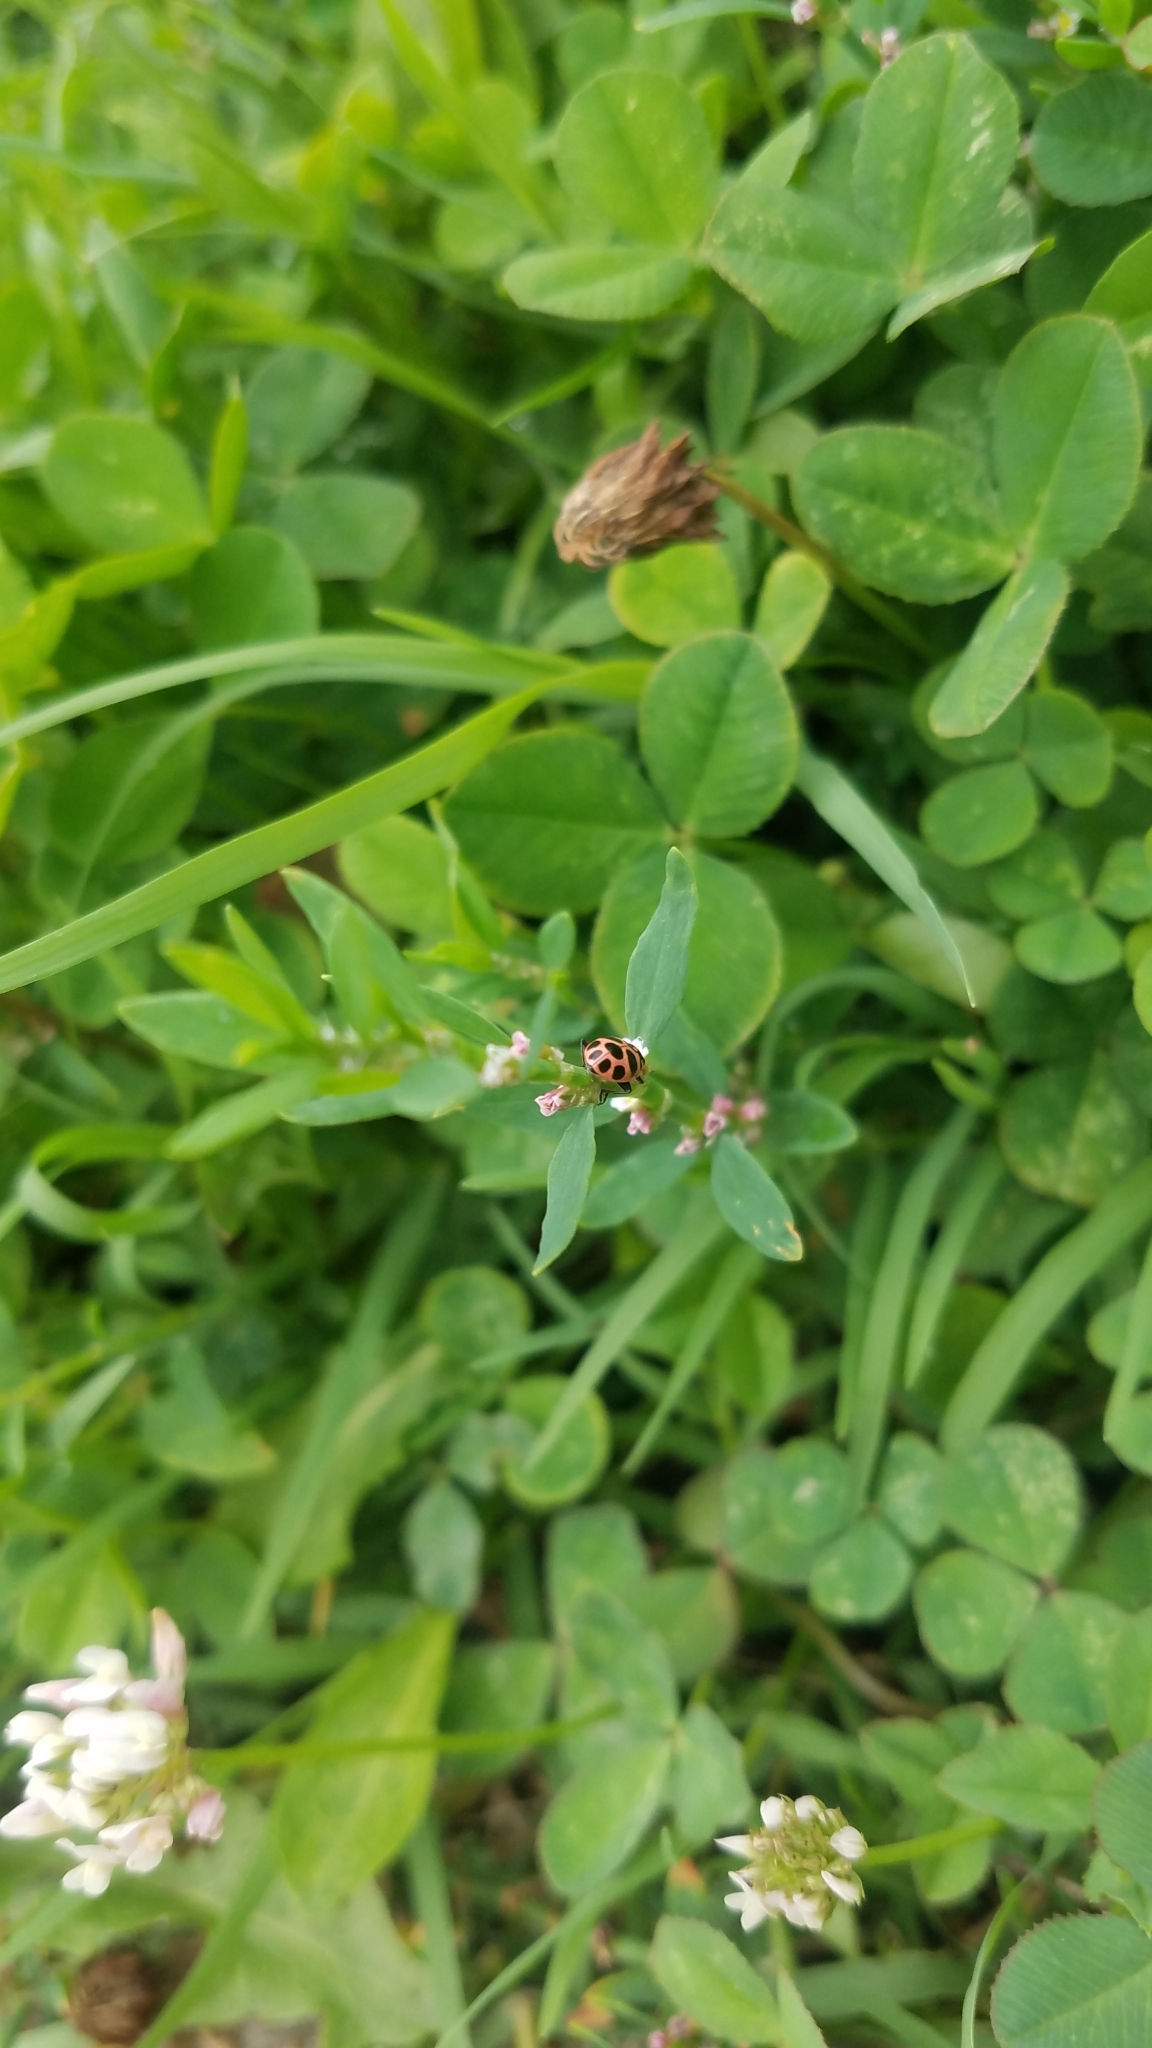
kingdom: Animalia
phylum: Arthropoda
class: Insecta
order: Coleoptera
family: Coccinellidae
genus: Coleomegilla
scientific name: Coleomegilla maculata
